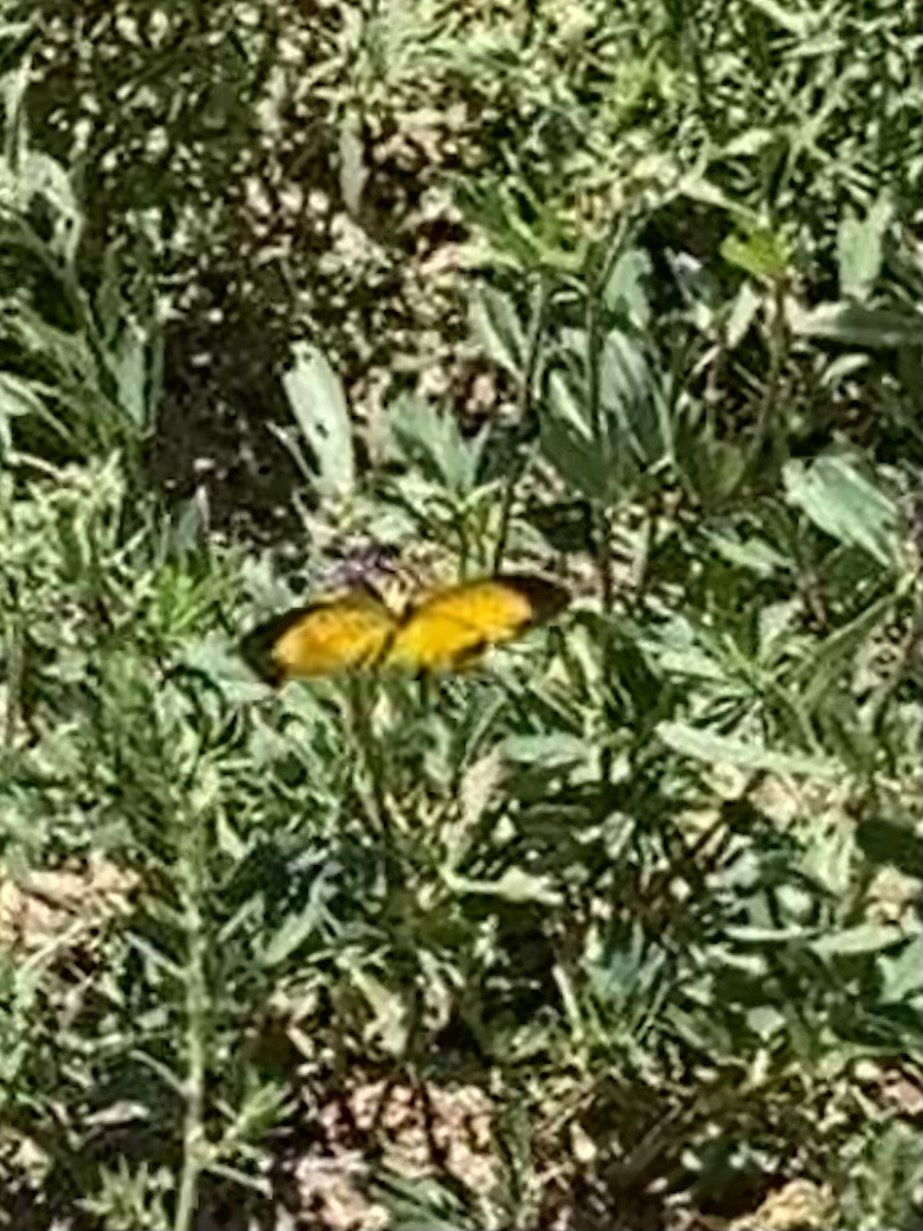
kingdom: Animalia
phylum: Arthropoda
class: Insecta
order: Lepidoptera
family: Pieridae
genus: Abaeis
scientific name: Abaeis nicippe
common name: Sleepy orange
